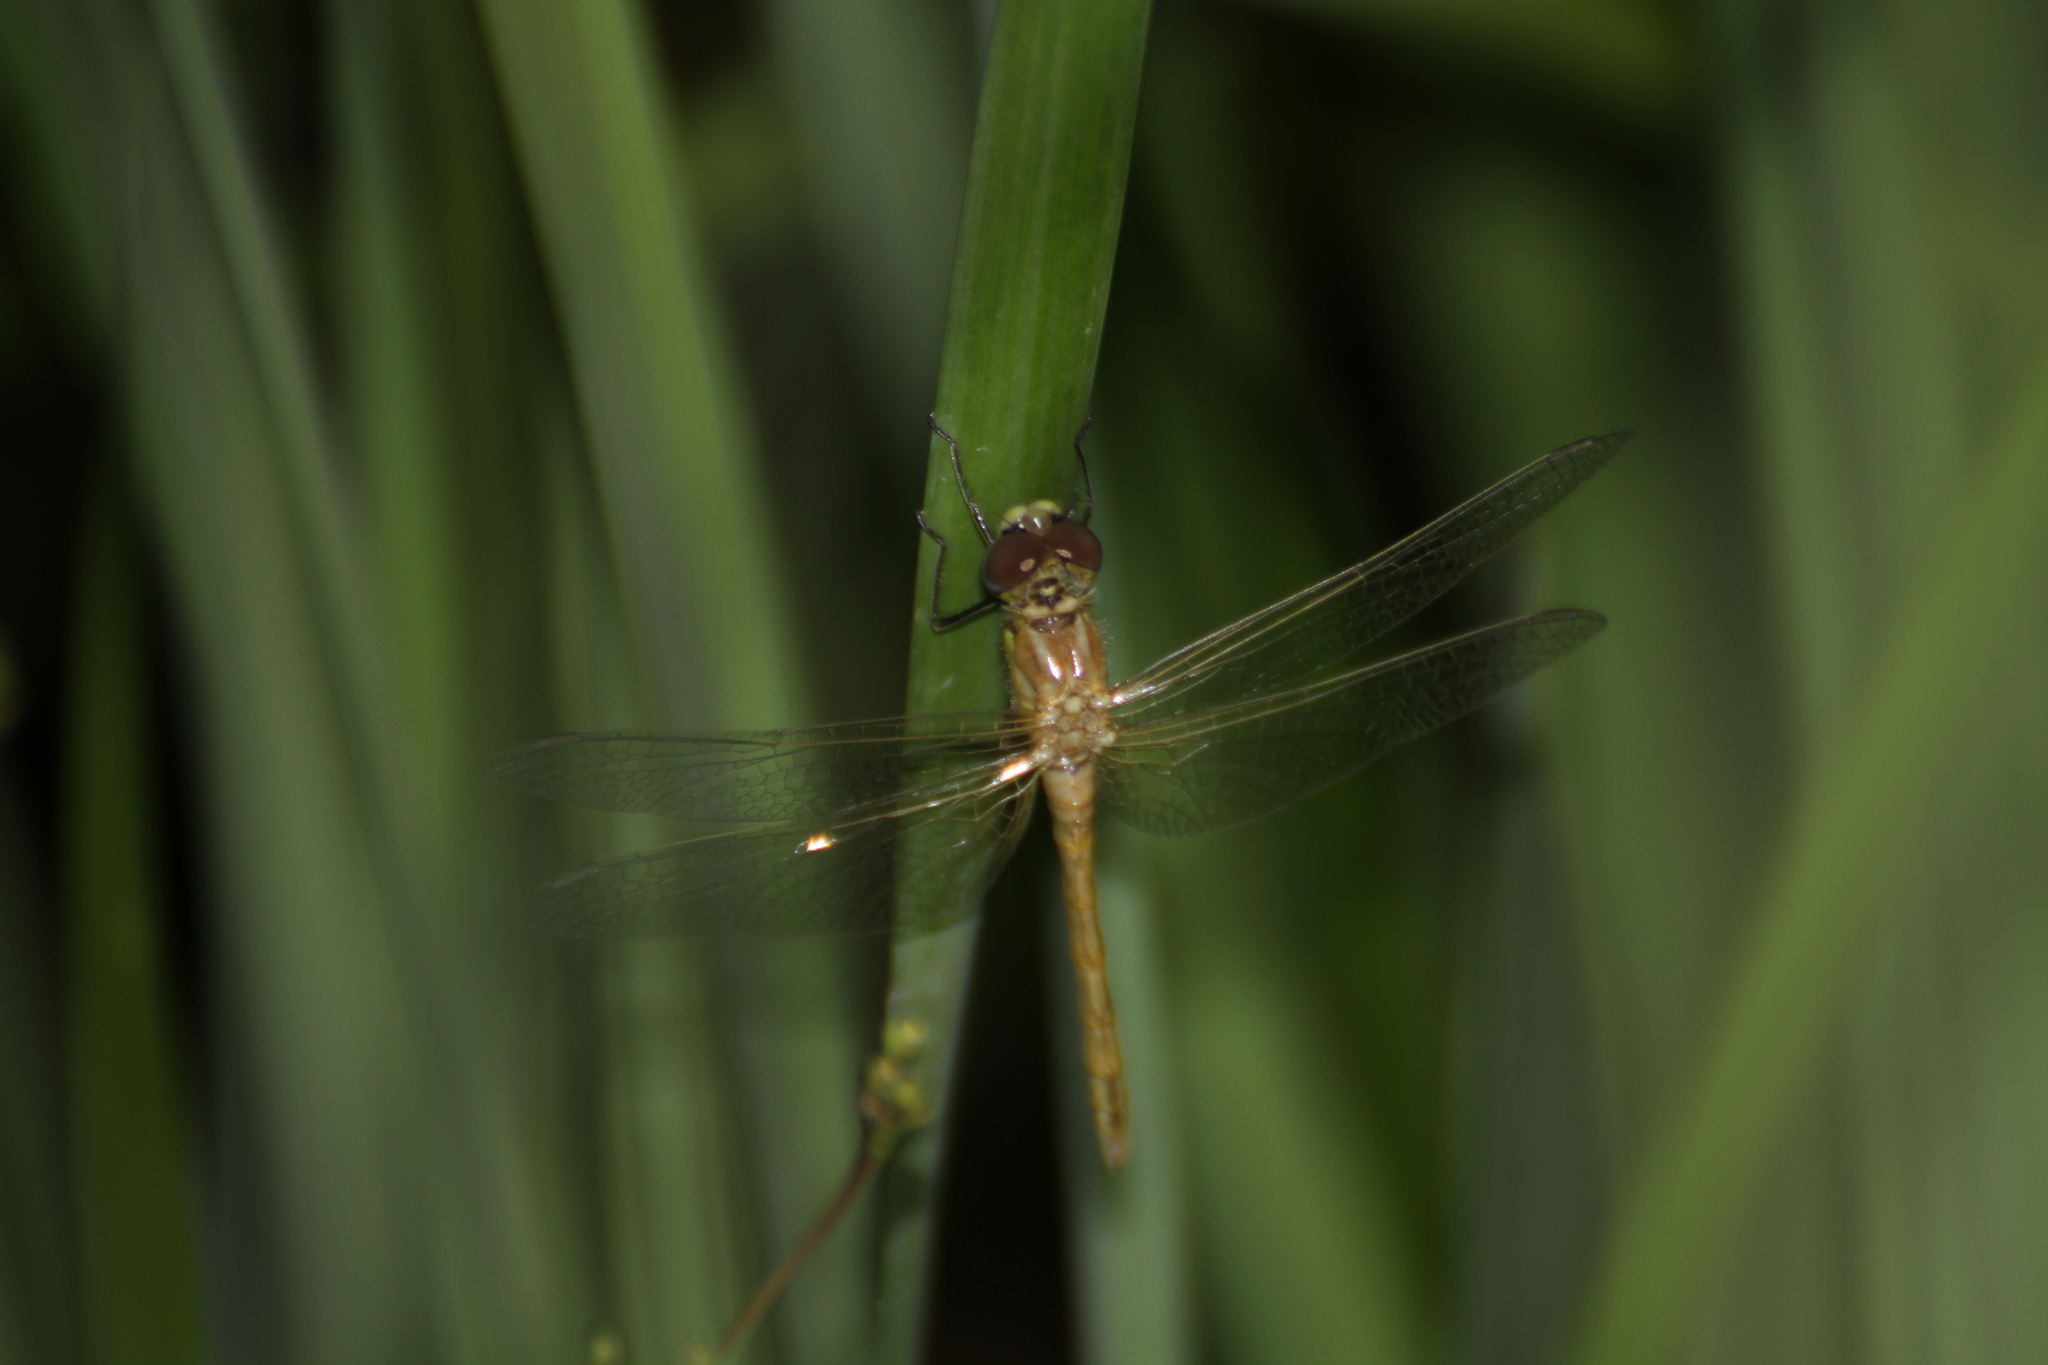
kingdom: Animalia
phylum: Arthropoda
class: Insecta
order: Odonata
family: Libellulidae
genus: Sympetrum
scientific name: Sympetrum striolatum
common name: Common darter
